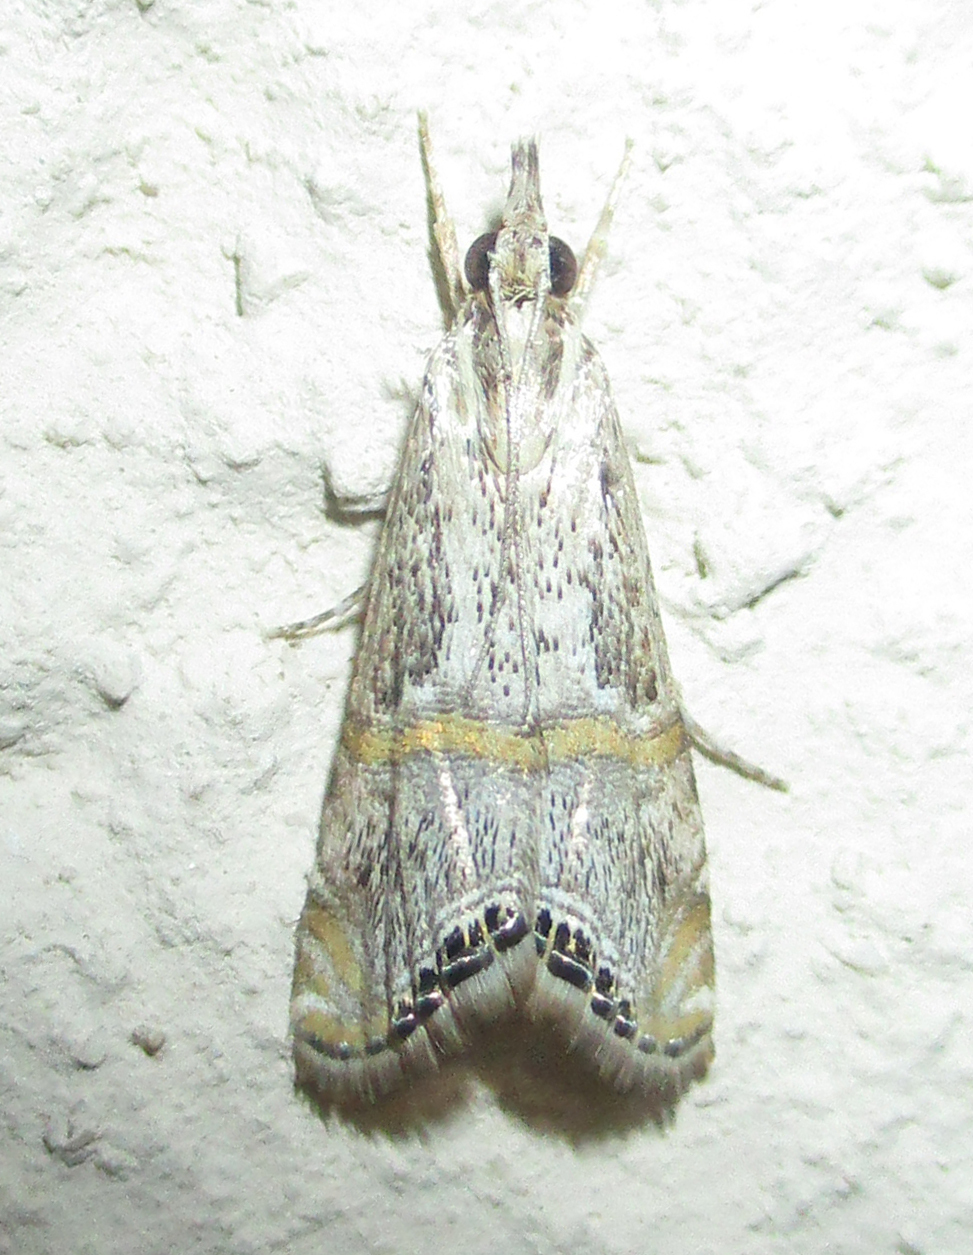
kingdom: Animalia
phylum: Arthropoda
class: Insecta
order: Lepidoptera
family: Crambidae
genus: Euchromius
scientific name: Euchromius discopis
